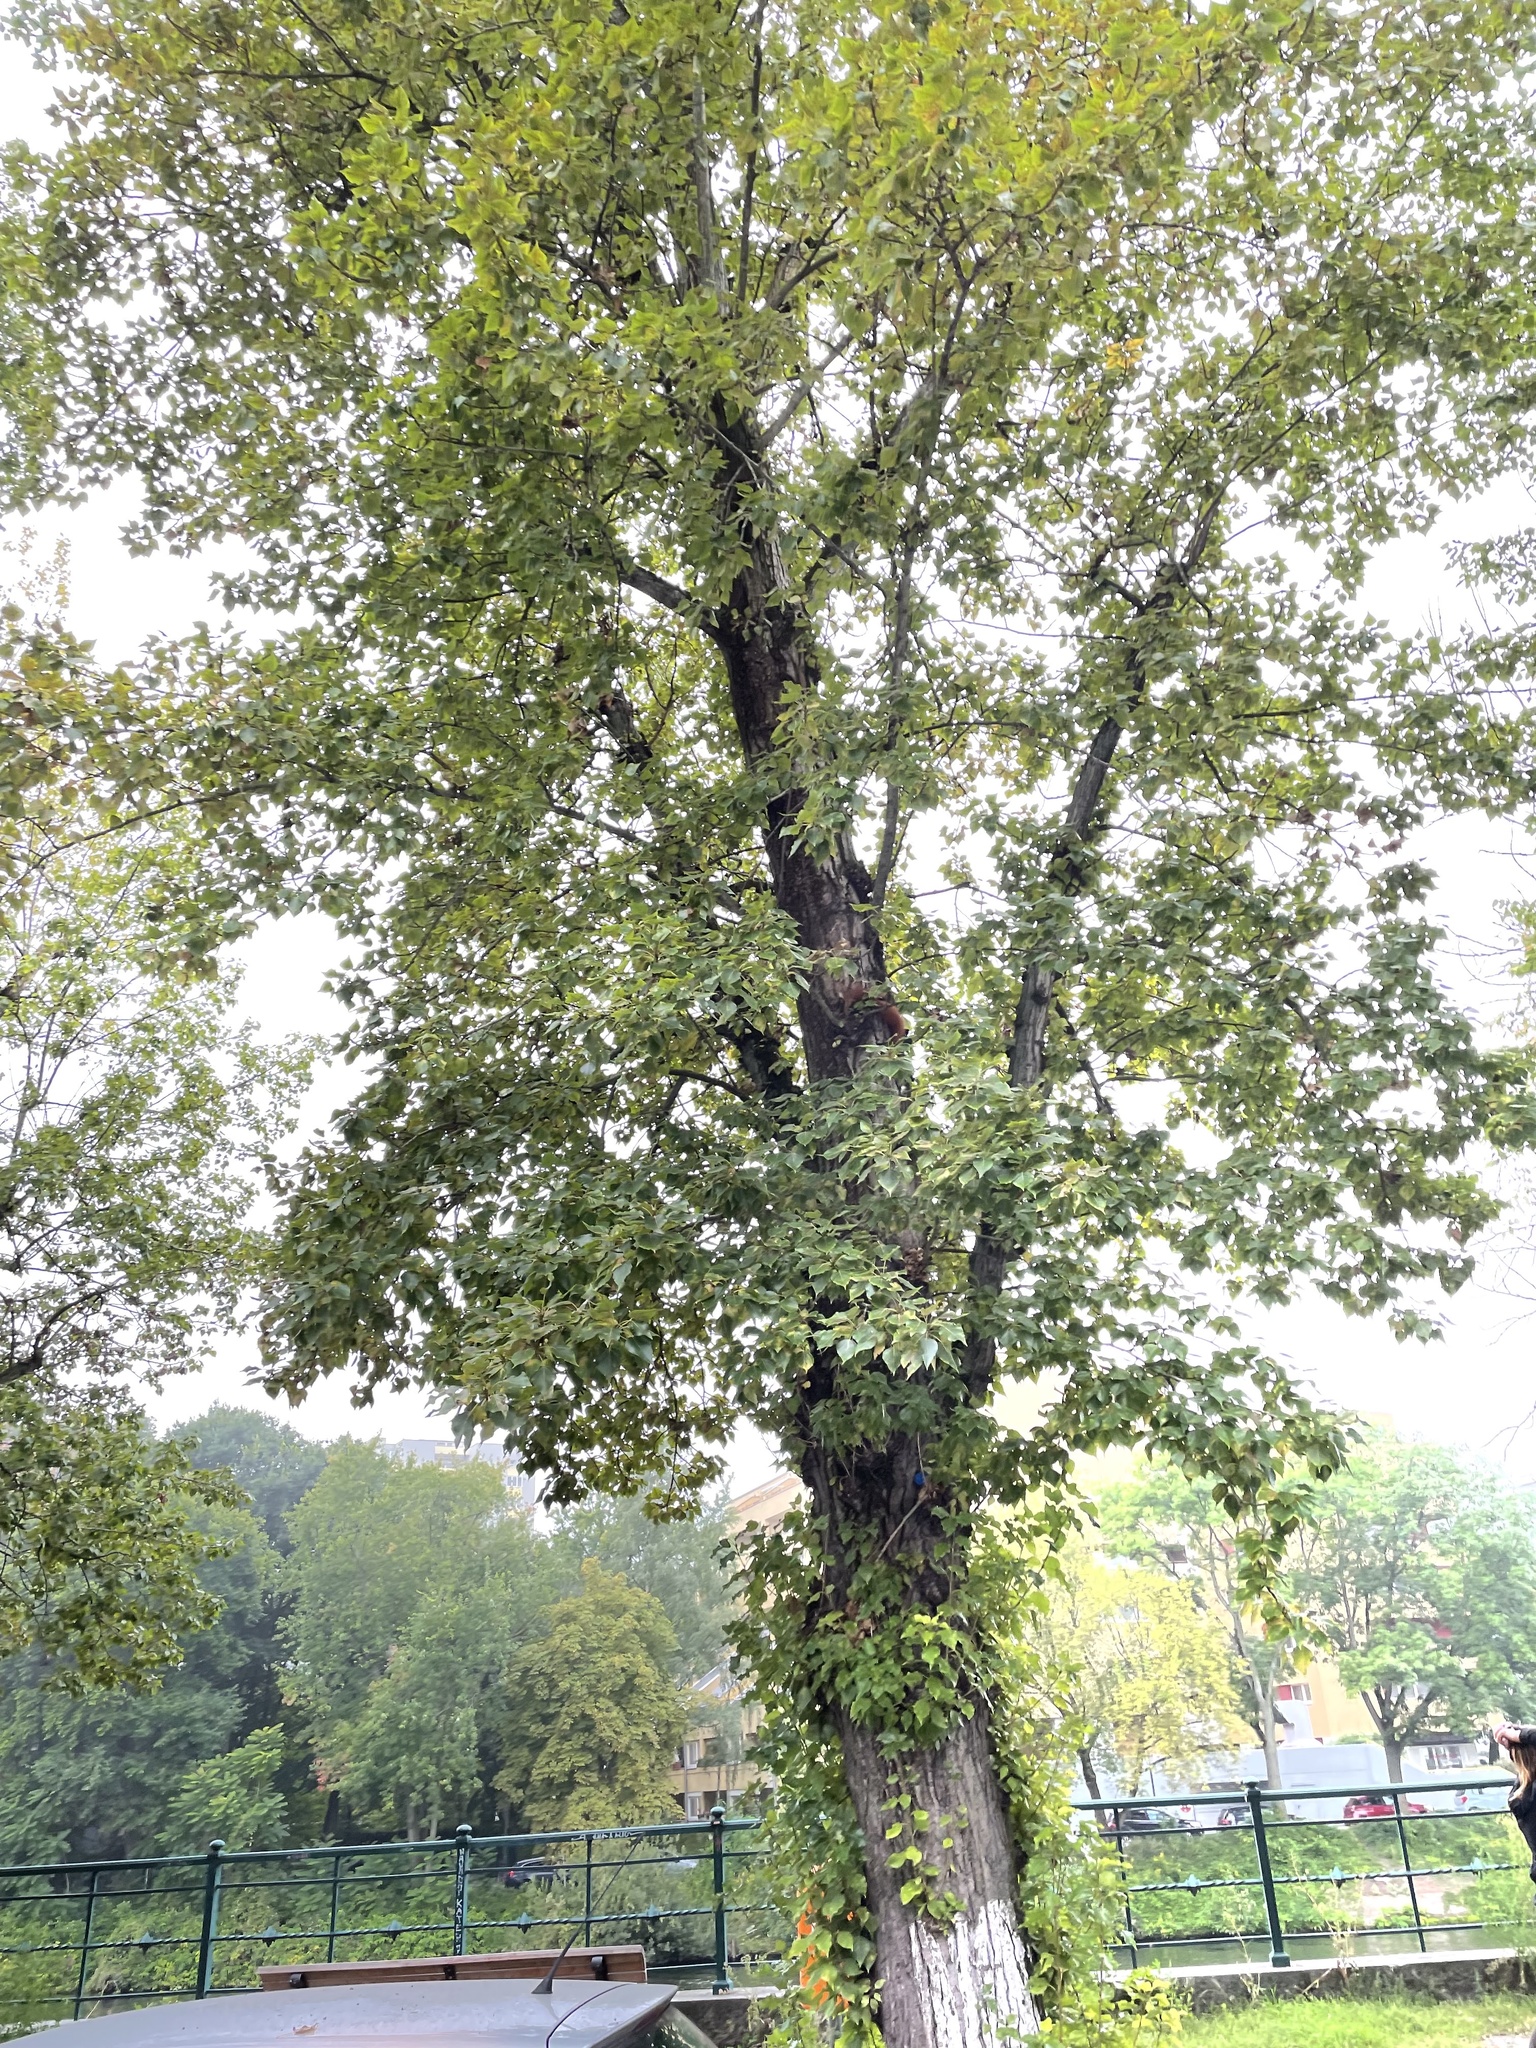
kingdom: Animalia
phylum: Chordata
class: Mammalia
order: Rodentia
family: Sciuridae
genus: Sciurus
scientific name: Sciurus vulgaris
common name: Eurasian red squirrel
